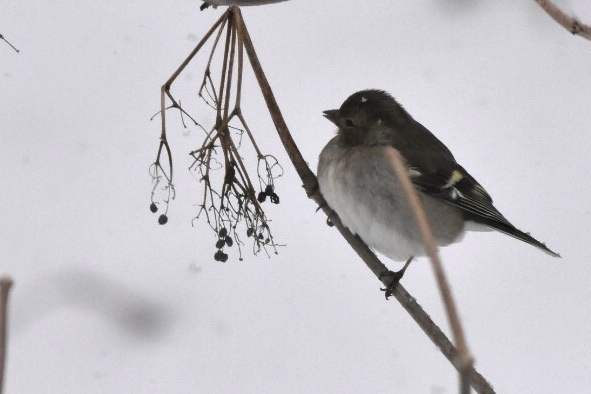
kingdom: Animalia
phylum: Chordata
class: Aves
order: Passeriformes
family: Fringillidae
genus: Fringilla
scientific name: Fringilla coelebs
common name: Common chaffinch
